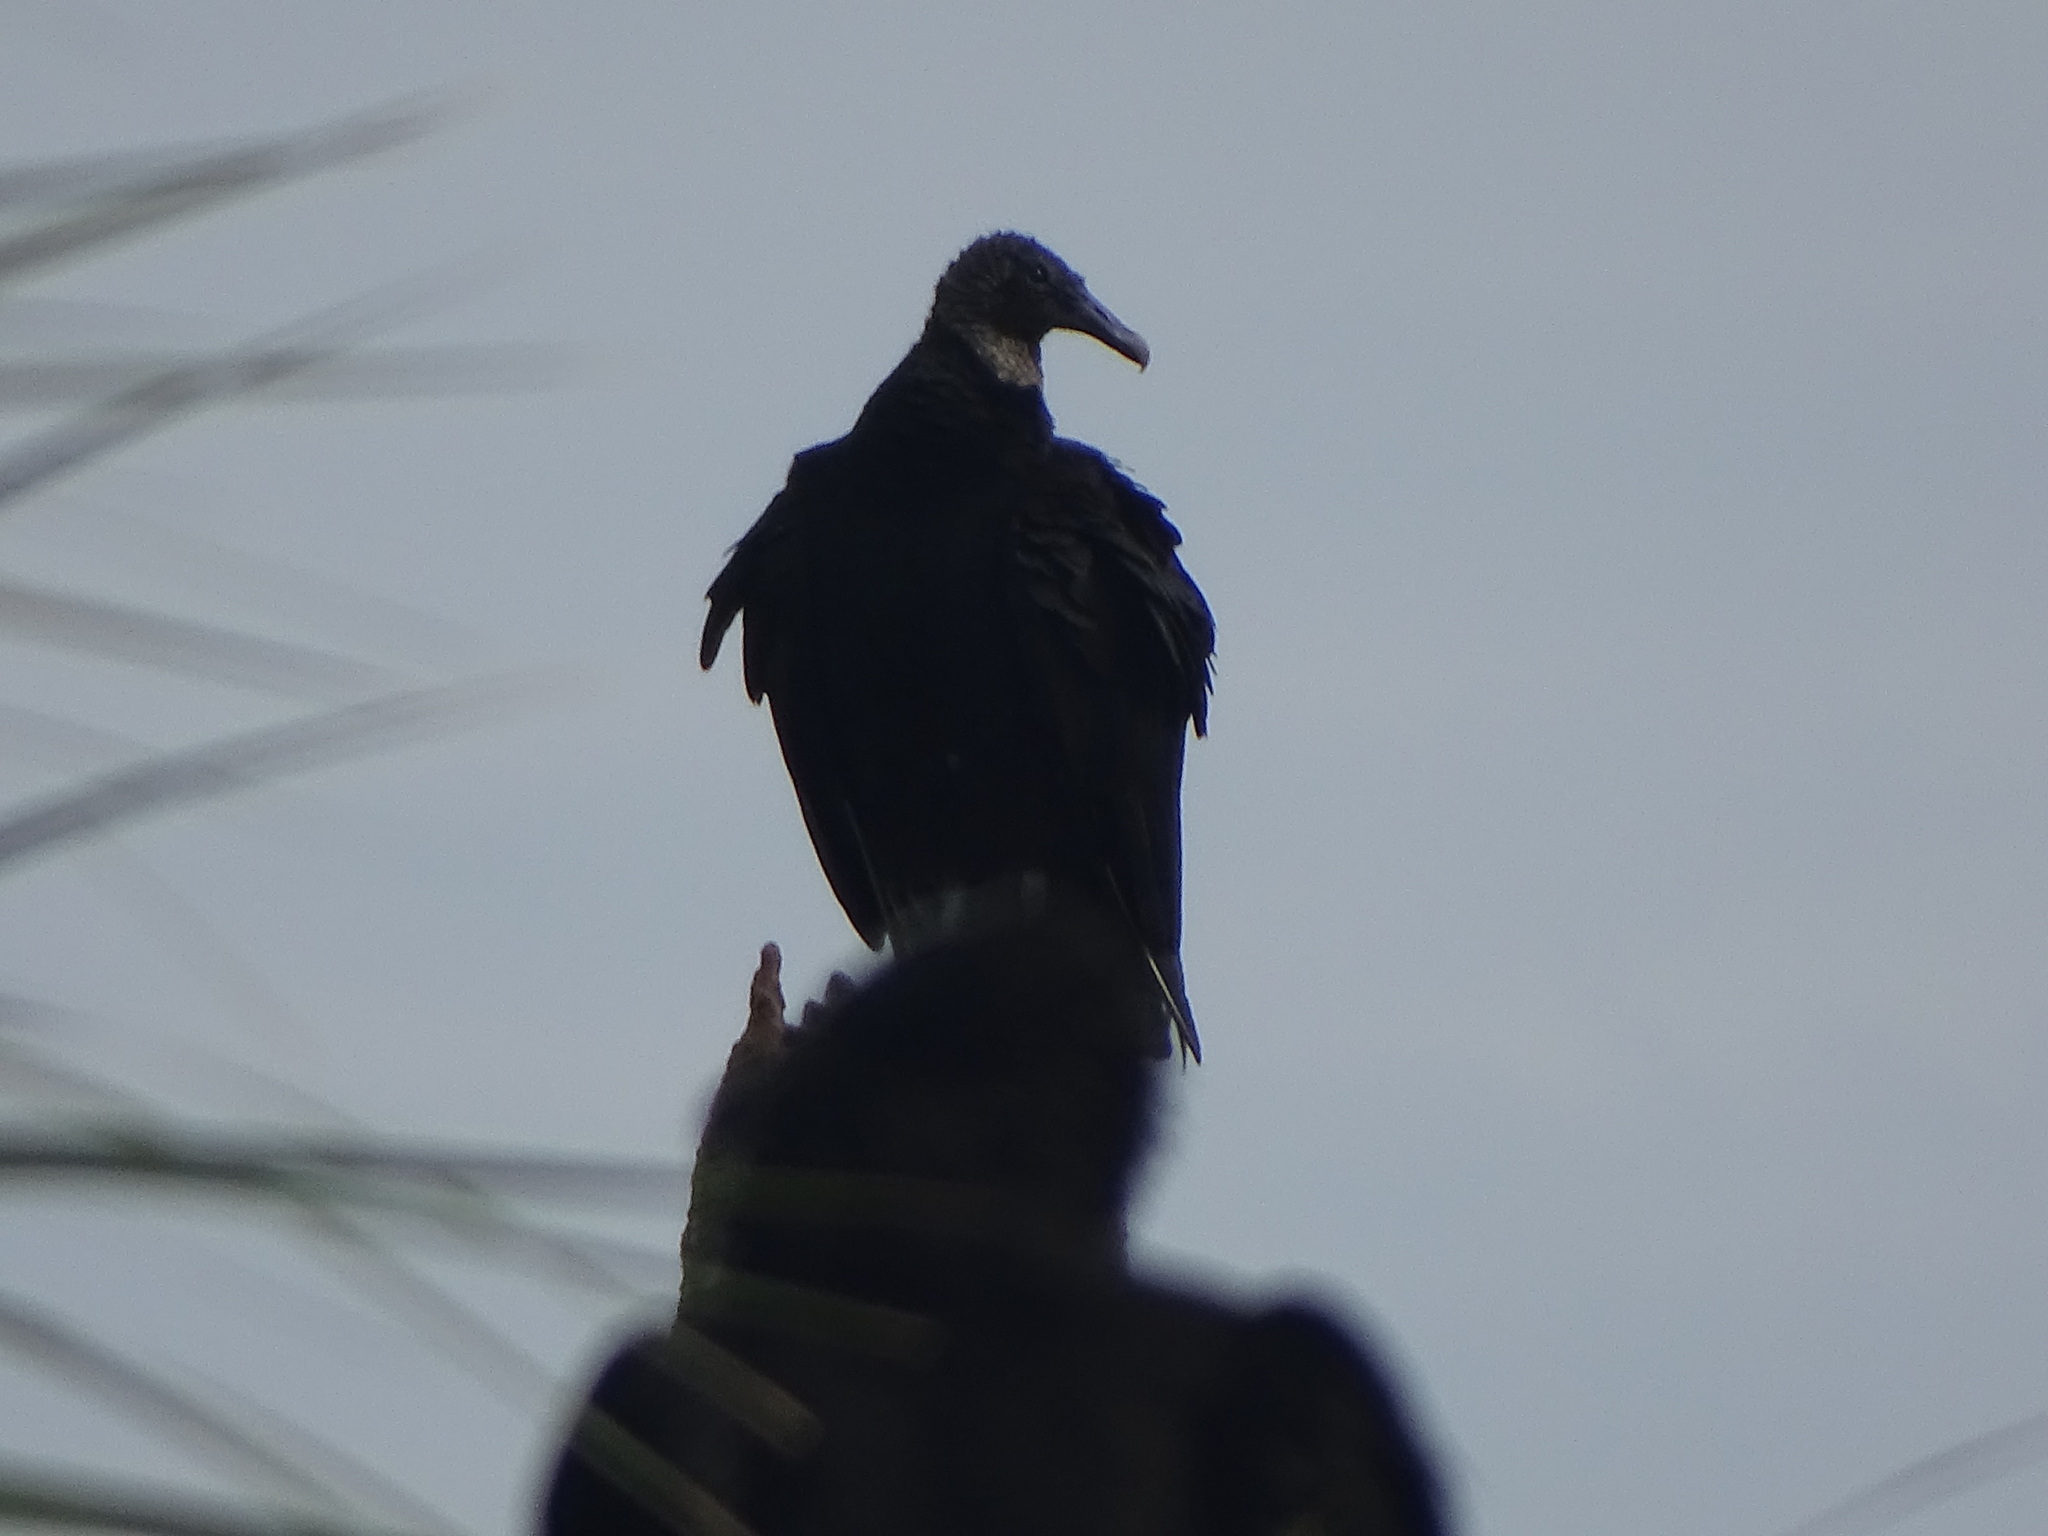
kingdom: Animalia
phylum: Chordata
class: Aves
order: Accipitriformes
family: Cathartidae
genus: Coragyps
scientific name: Coragyps atratus
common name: Black vulture
